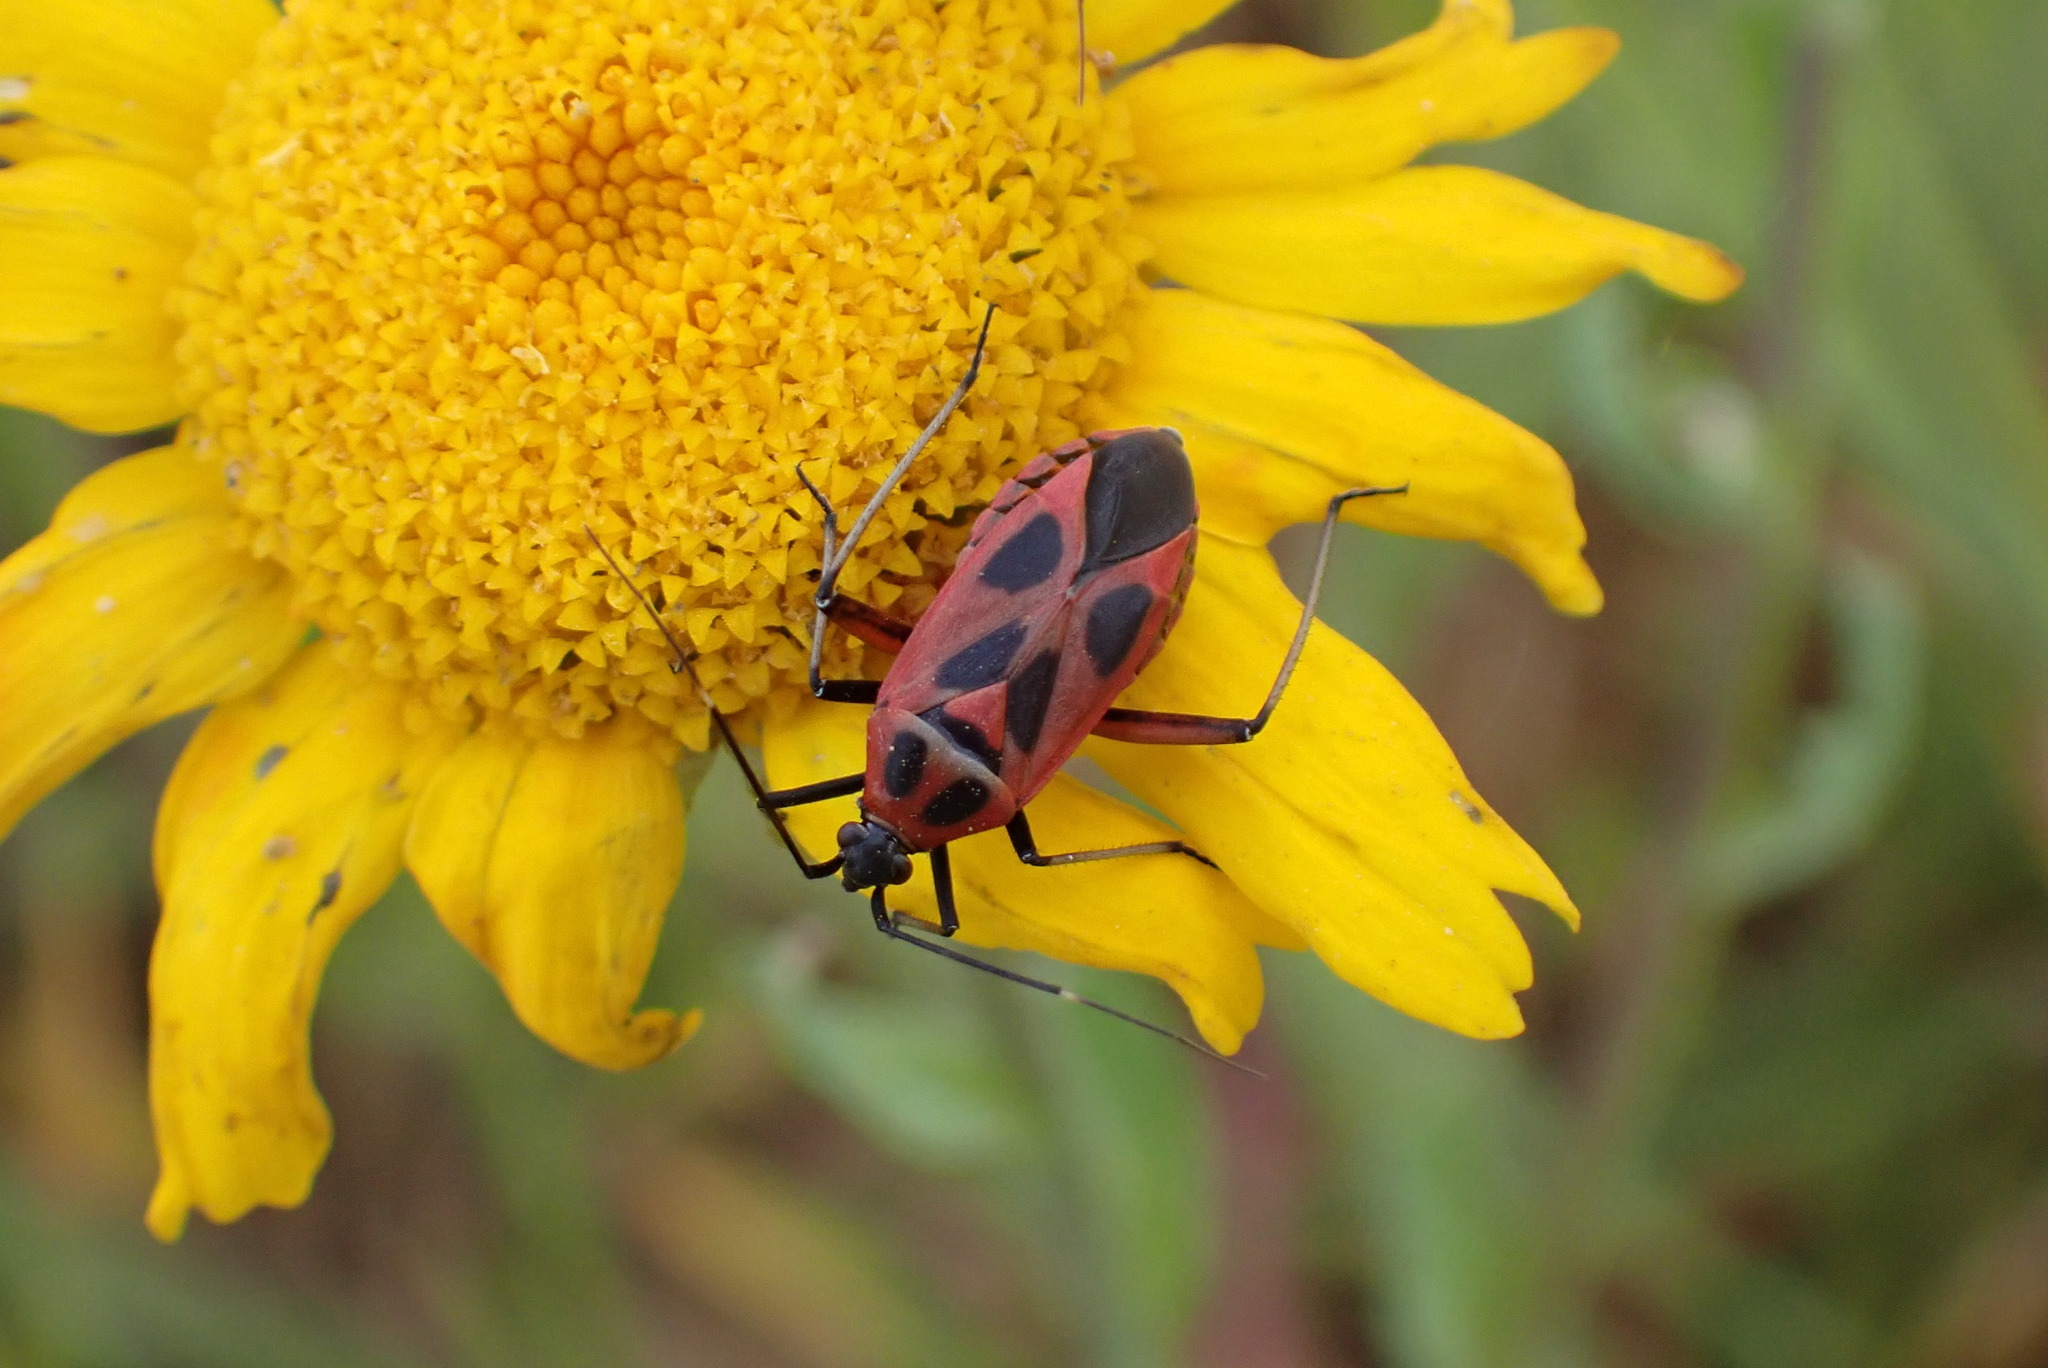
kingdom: Animalia
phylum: Arthropoda
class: Insecta
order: Hemiptera
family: Miridae
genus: Calocoris
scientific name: Calocoris nemoralis
